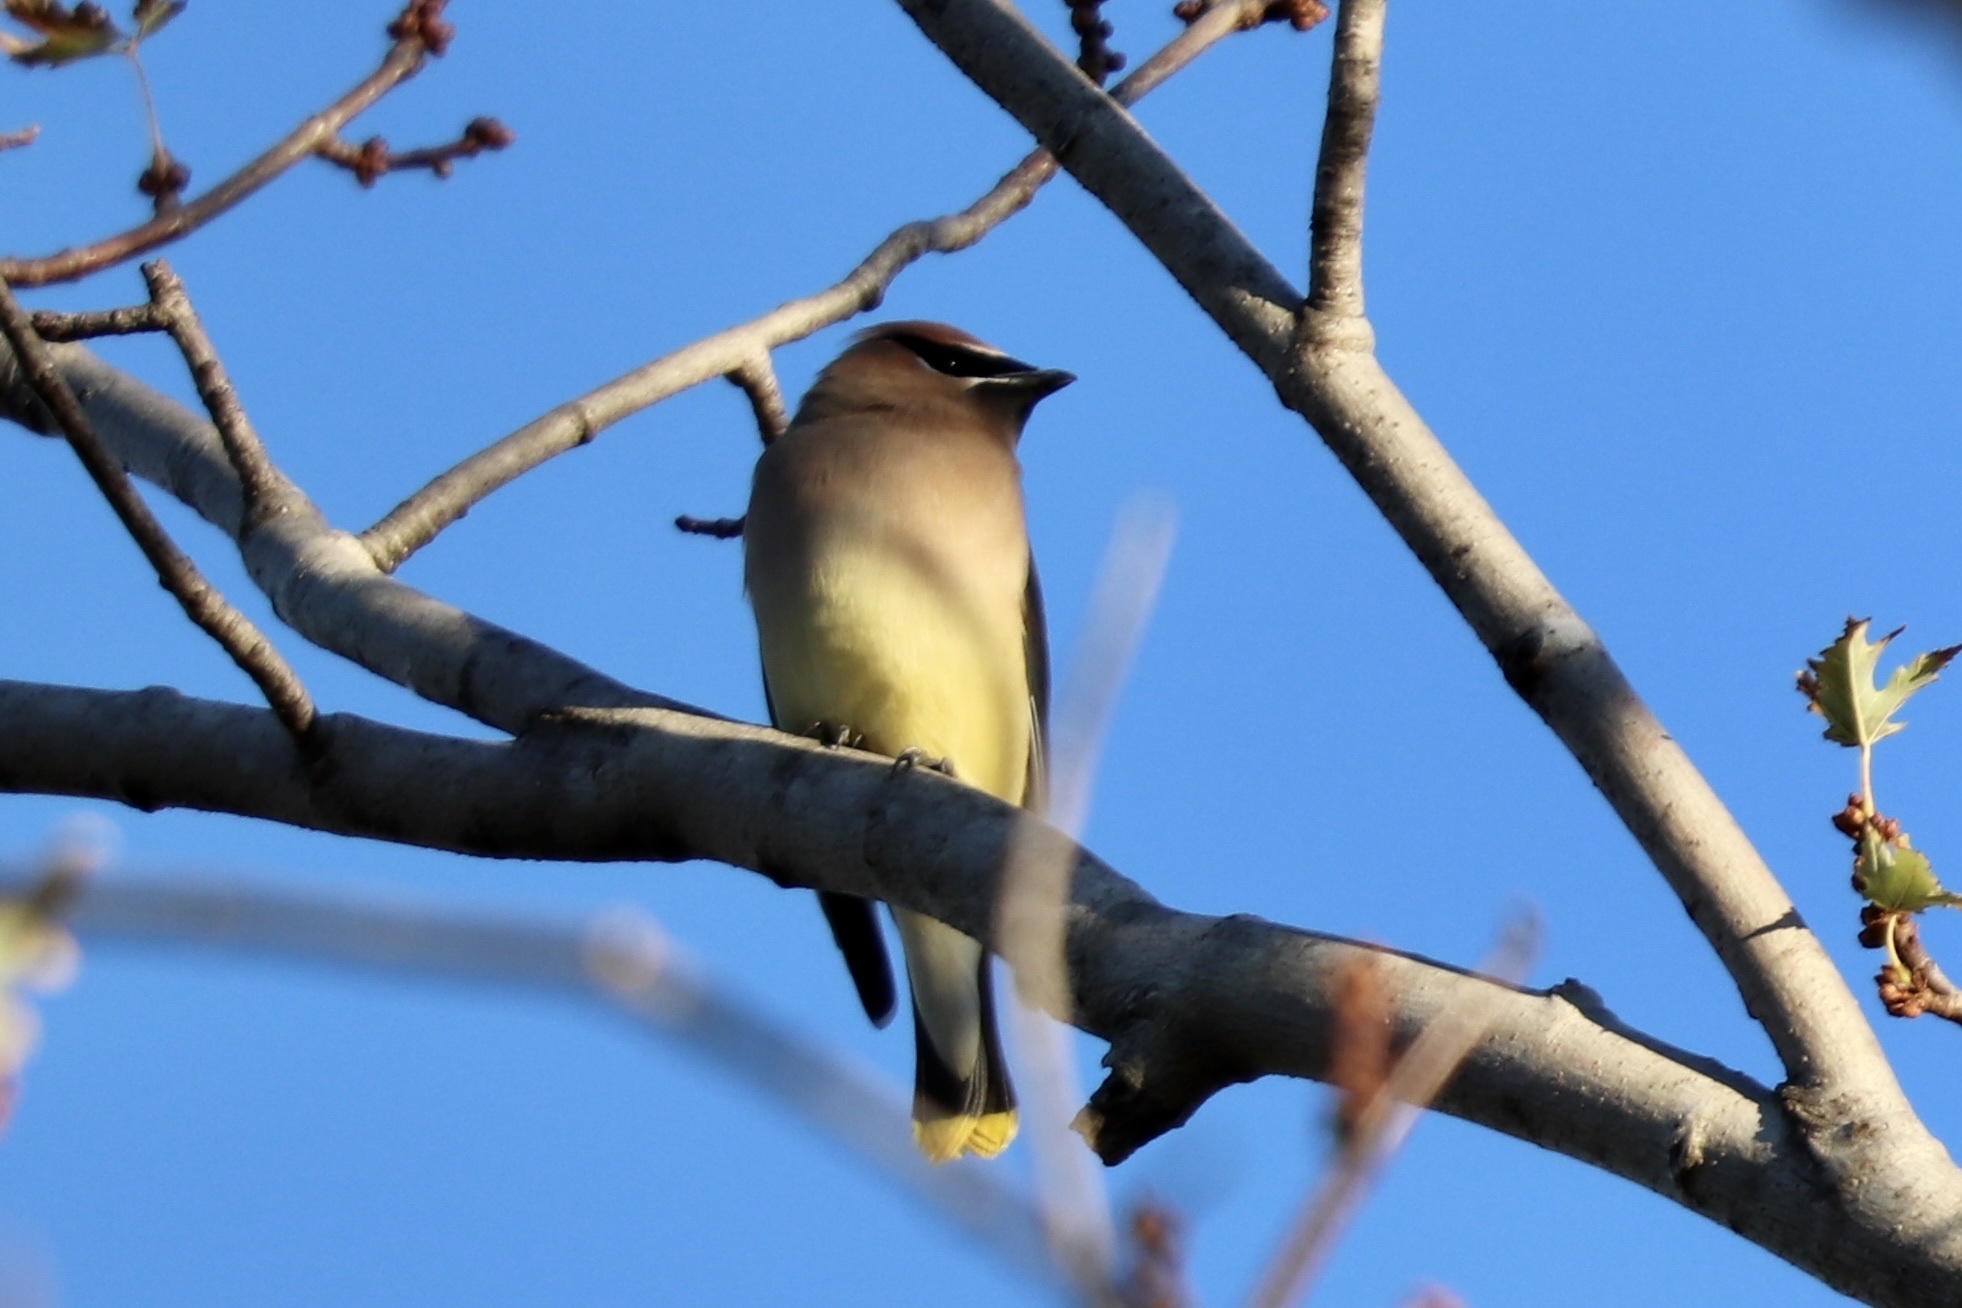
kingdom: Animalia
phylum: Chordata
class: Aves
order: Passeriformes
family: Bombycillidae
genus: Bombycilla
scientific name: Bombycilla cedrorum
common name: Cedar waxwing
